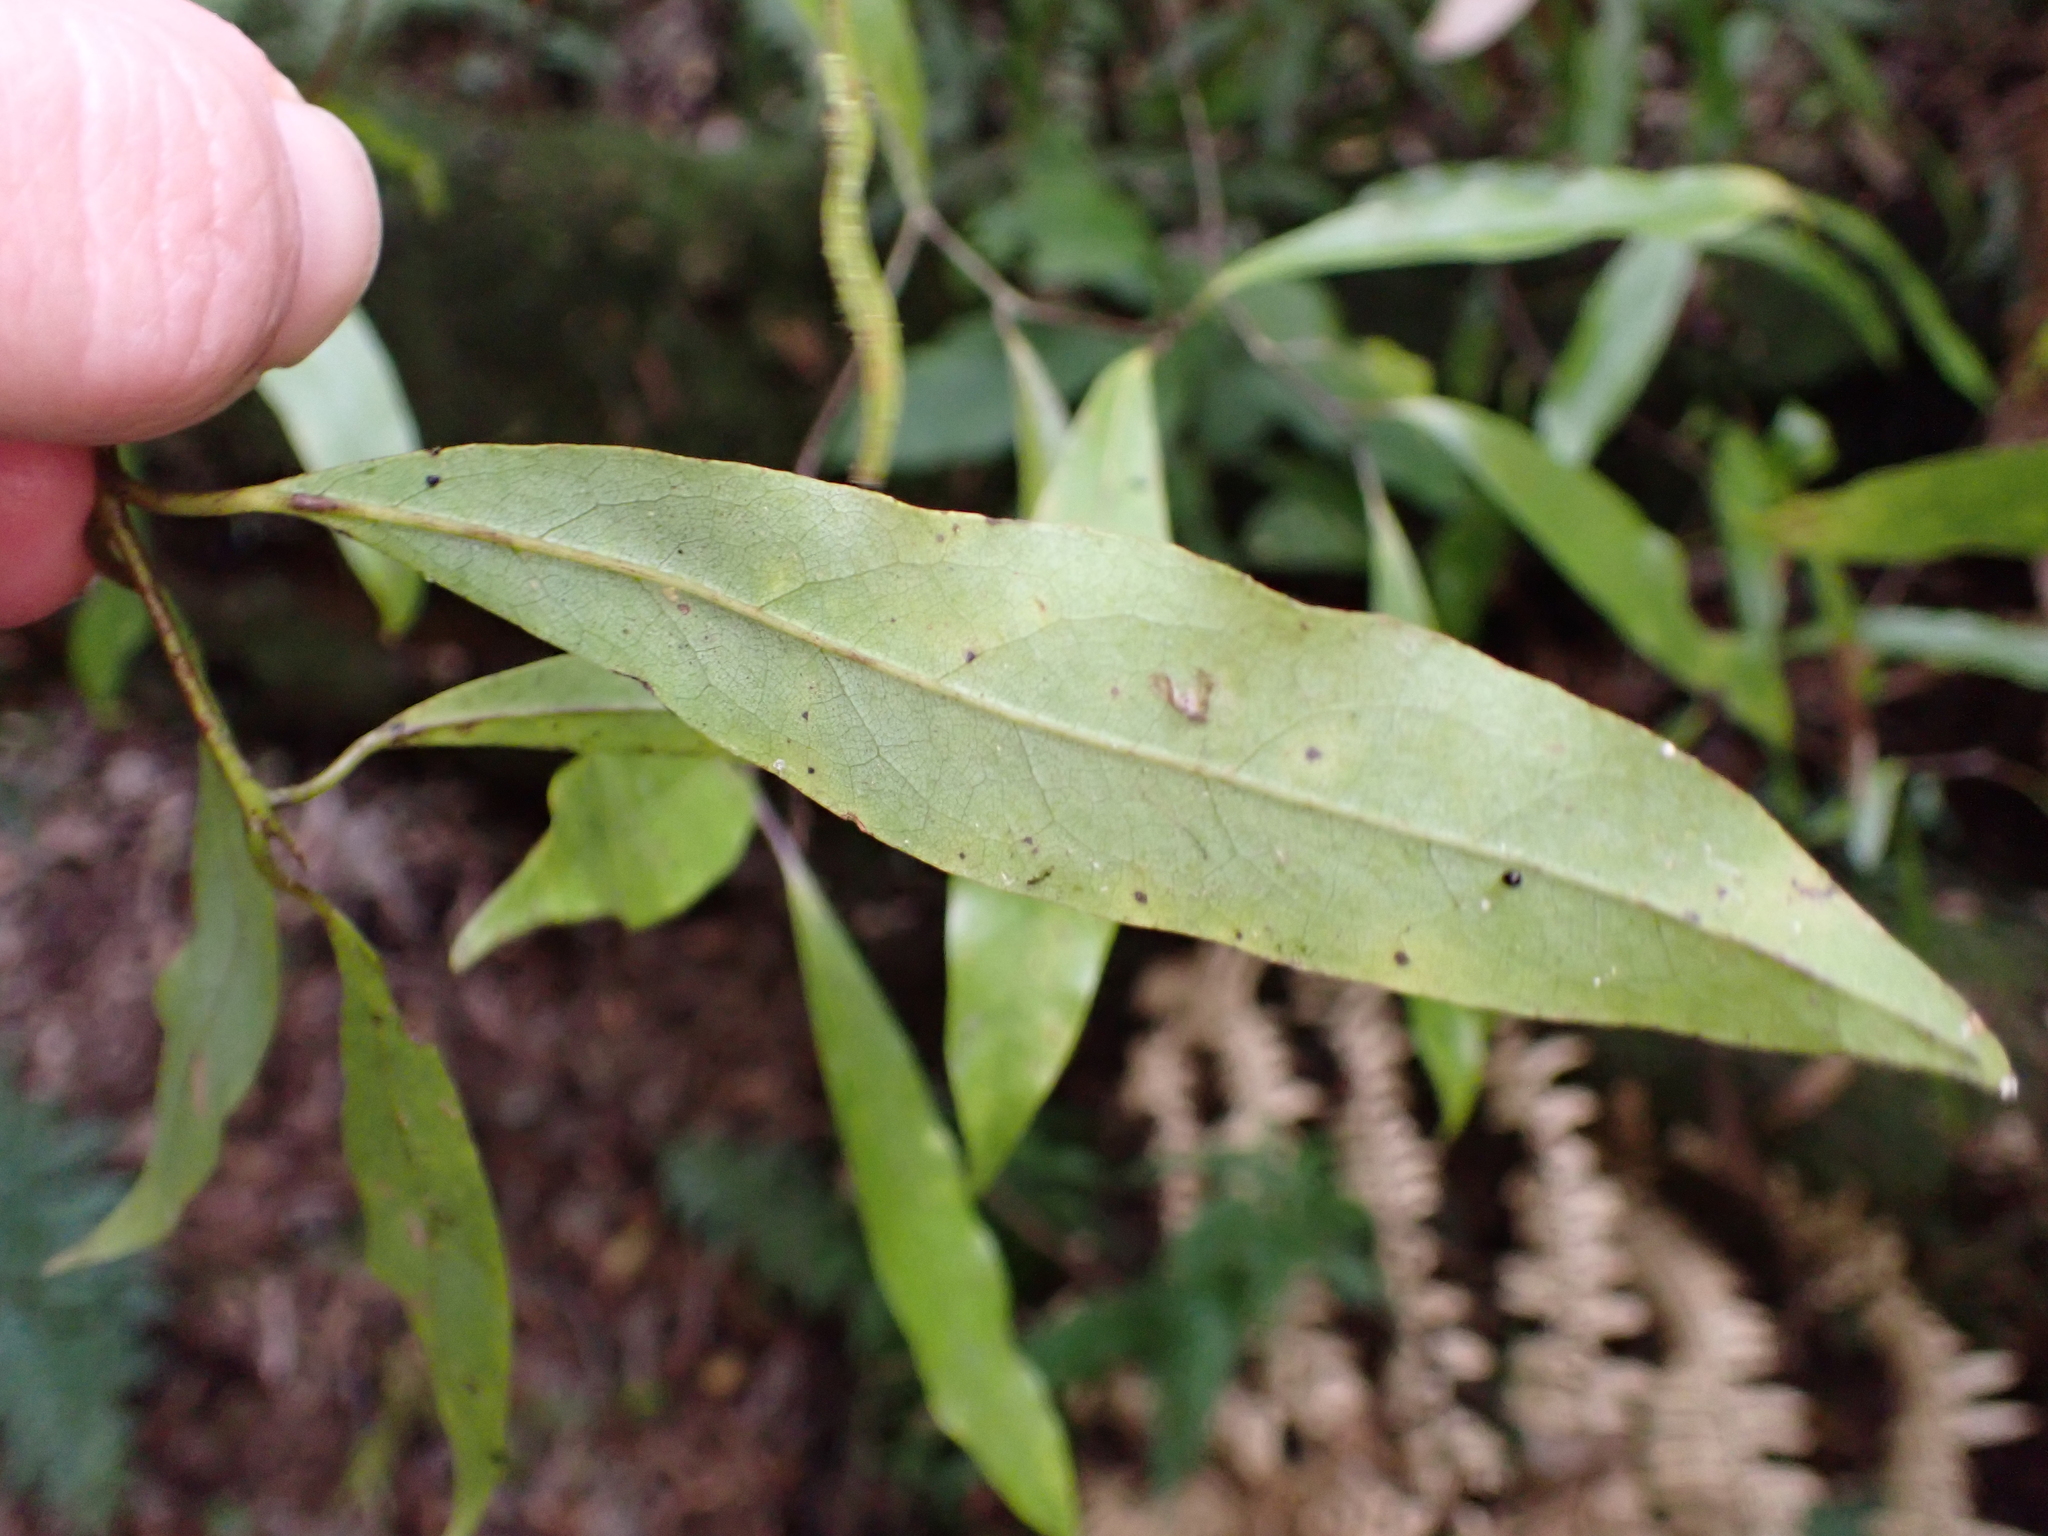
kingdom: Plantae
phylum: Tracheophyta
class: Magnoliopsida
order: Laurales
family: Lauraceae
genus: Beilschmiedia
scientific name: Beilschmiedia tawa
